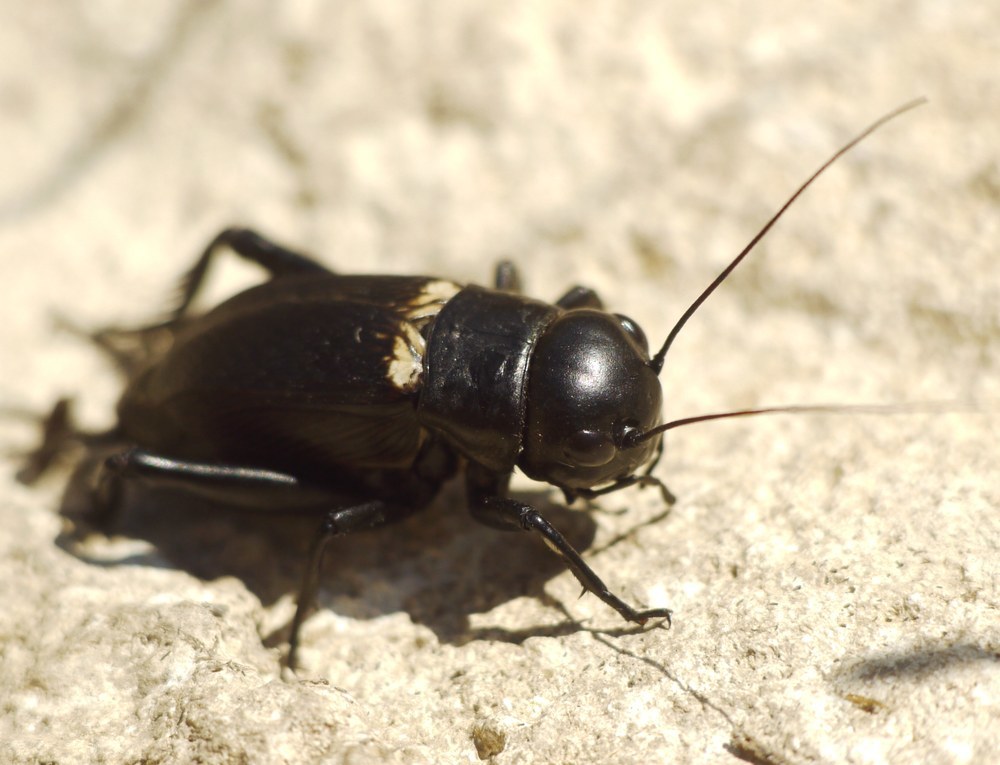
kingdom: Animalia
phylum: Arthropoda
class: Insecta
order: Orthoptera
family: Gryllidae
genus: Gryllus
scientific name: Gryllus campestris
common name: Field cricket
